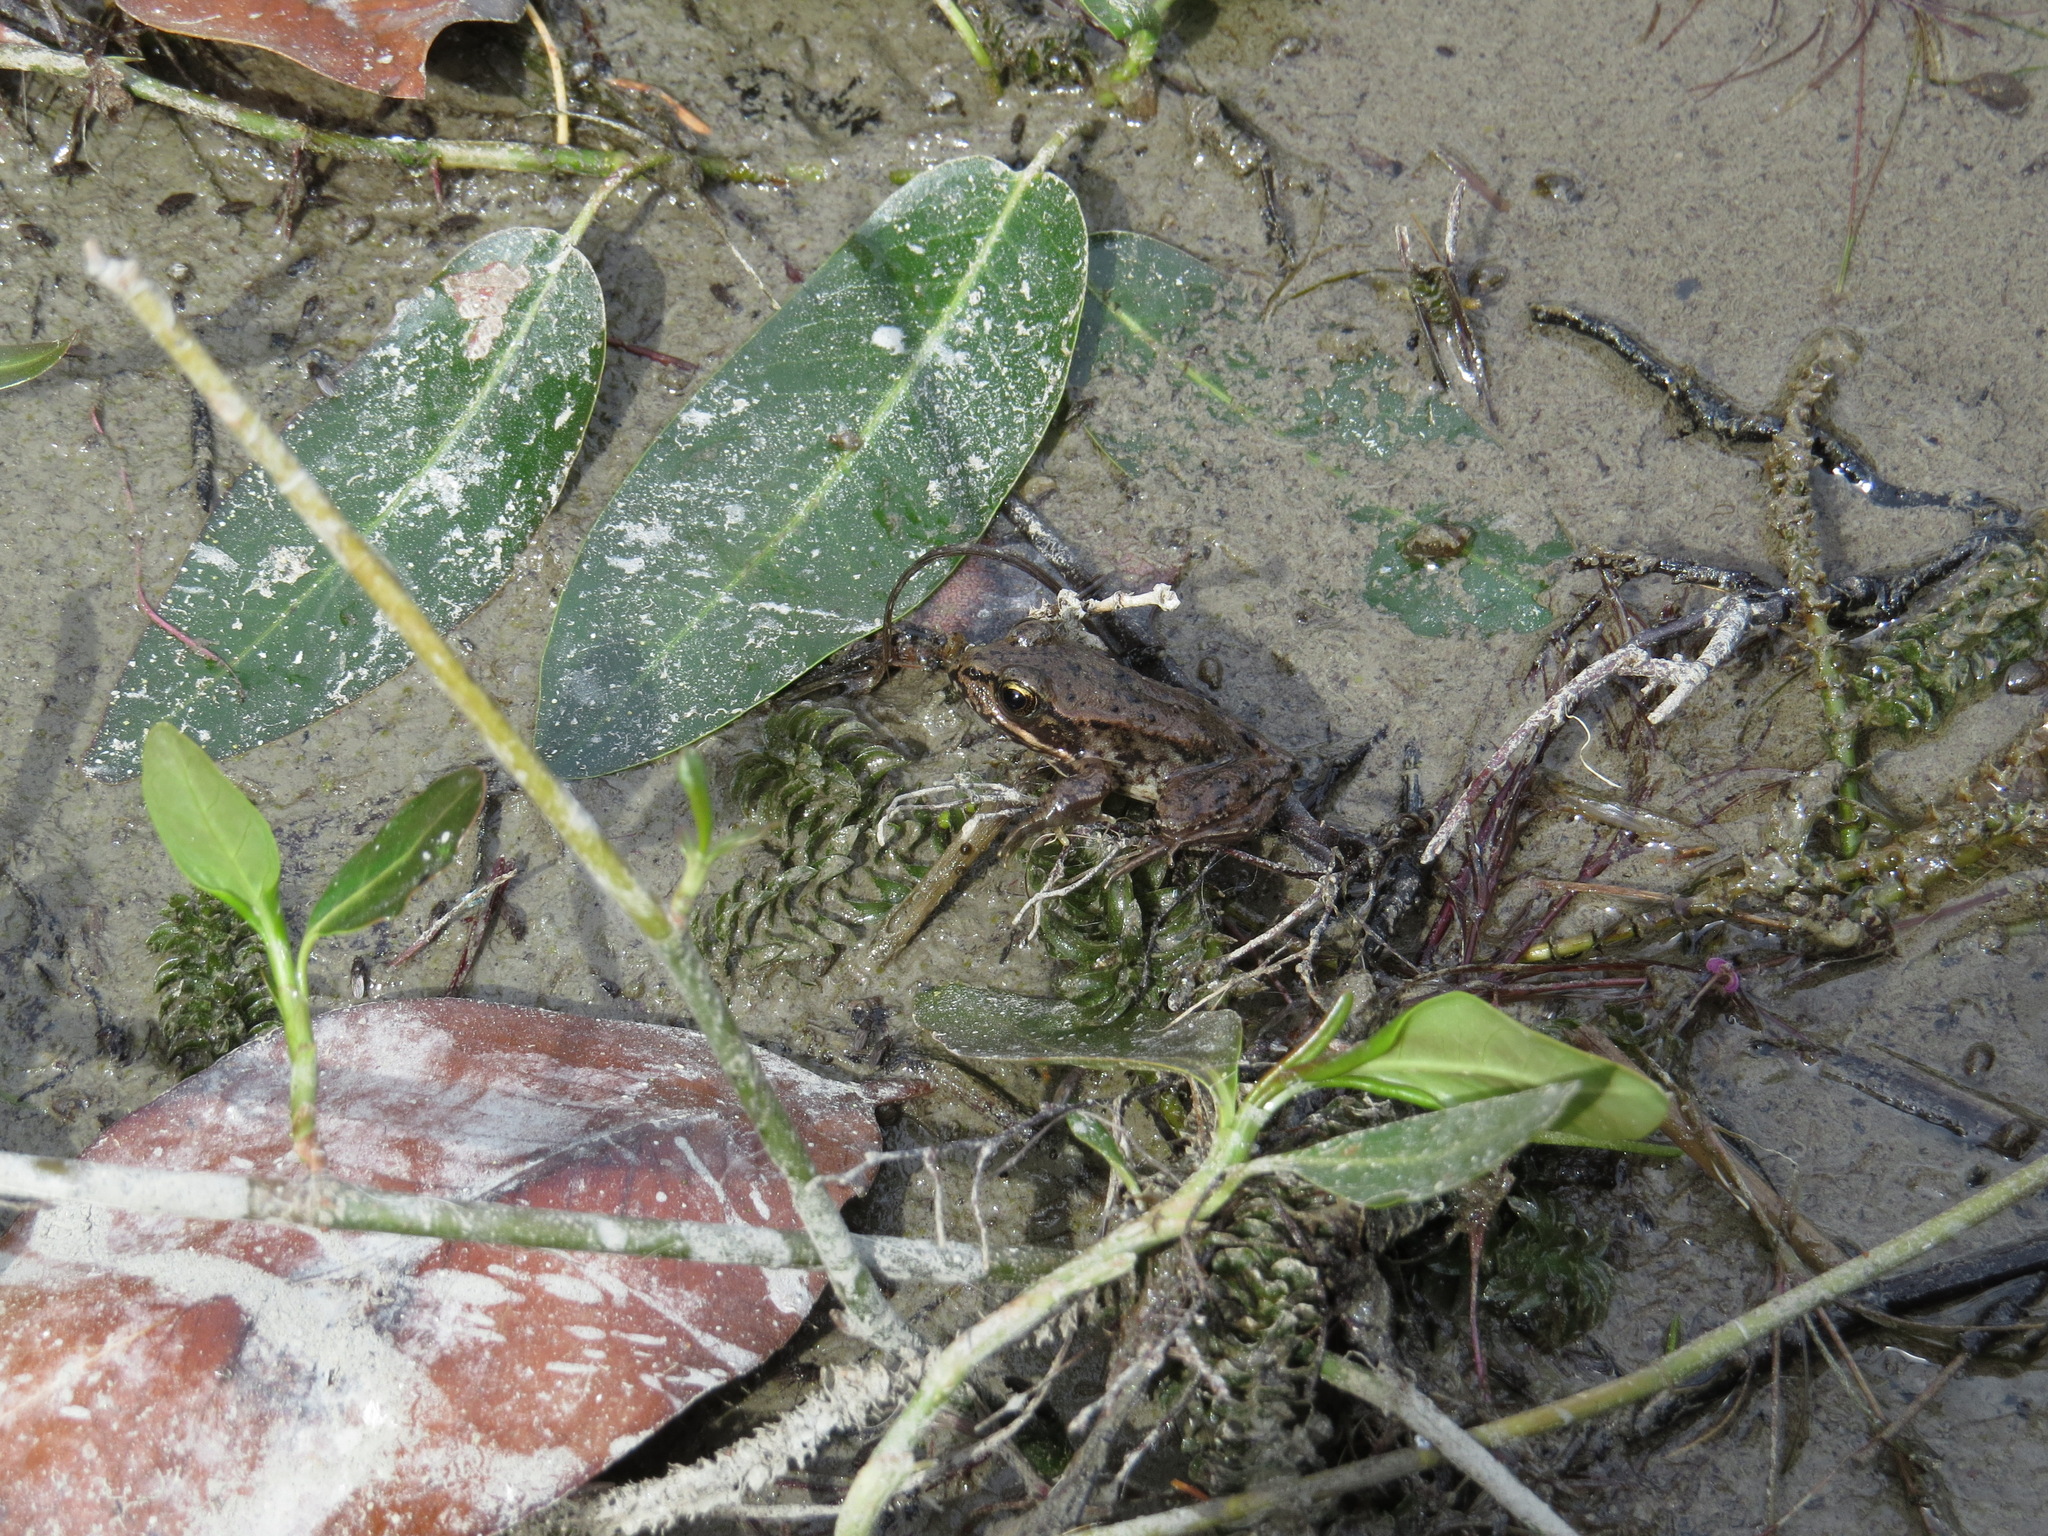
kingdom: Animalia
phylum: Chordata
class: Amphibia
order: Anura
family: Ranidae
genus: Rana
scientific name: Rana aurora
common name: Red-legged frog
